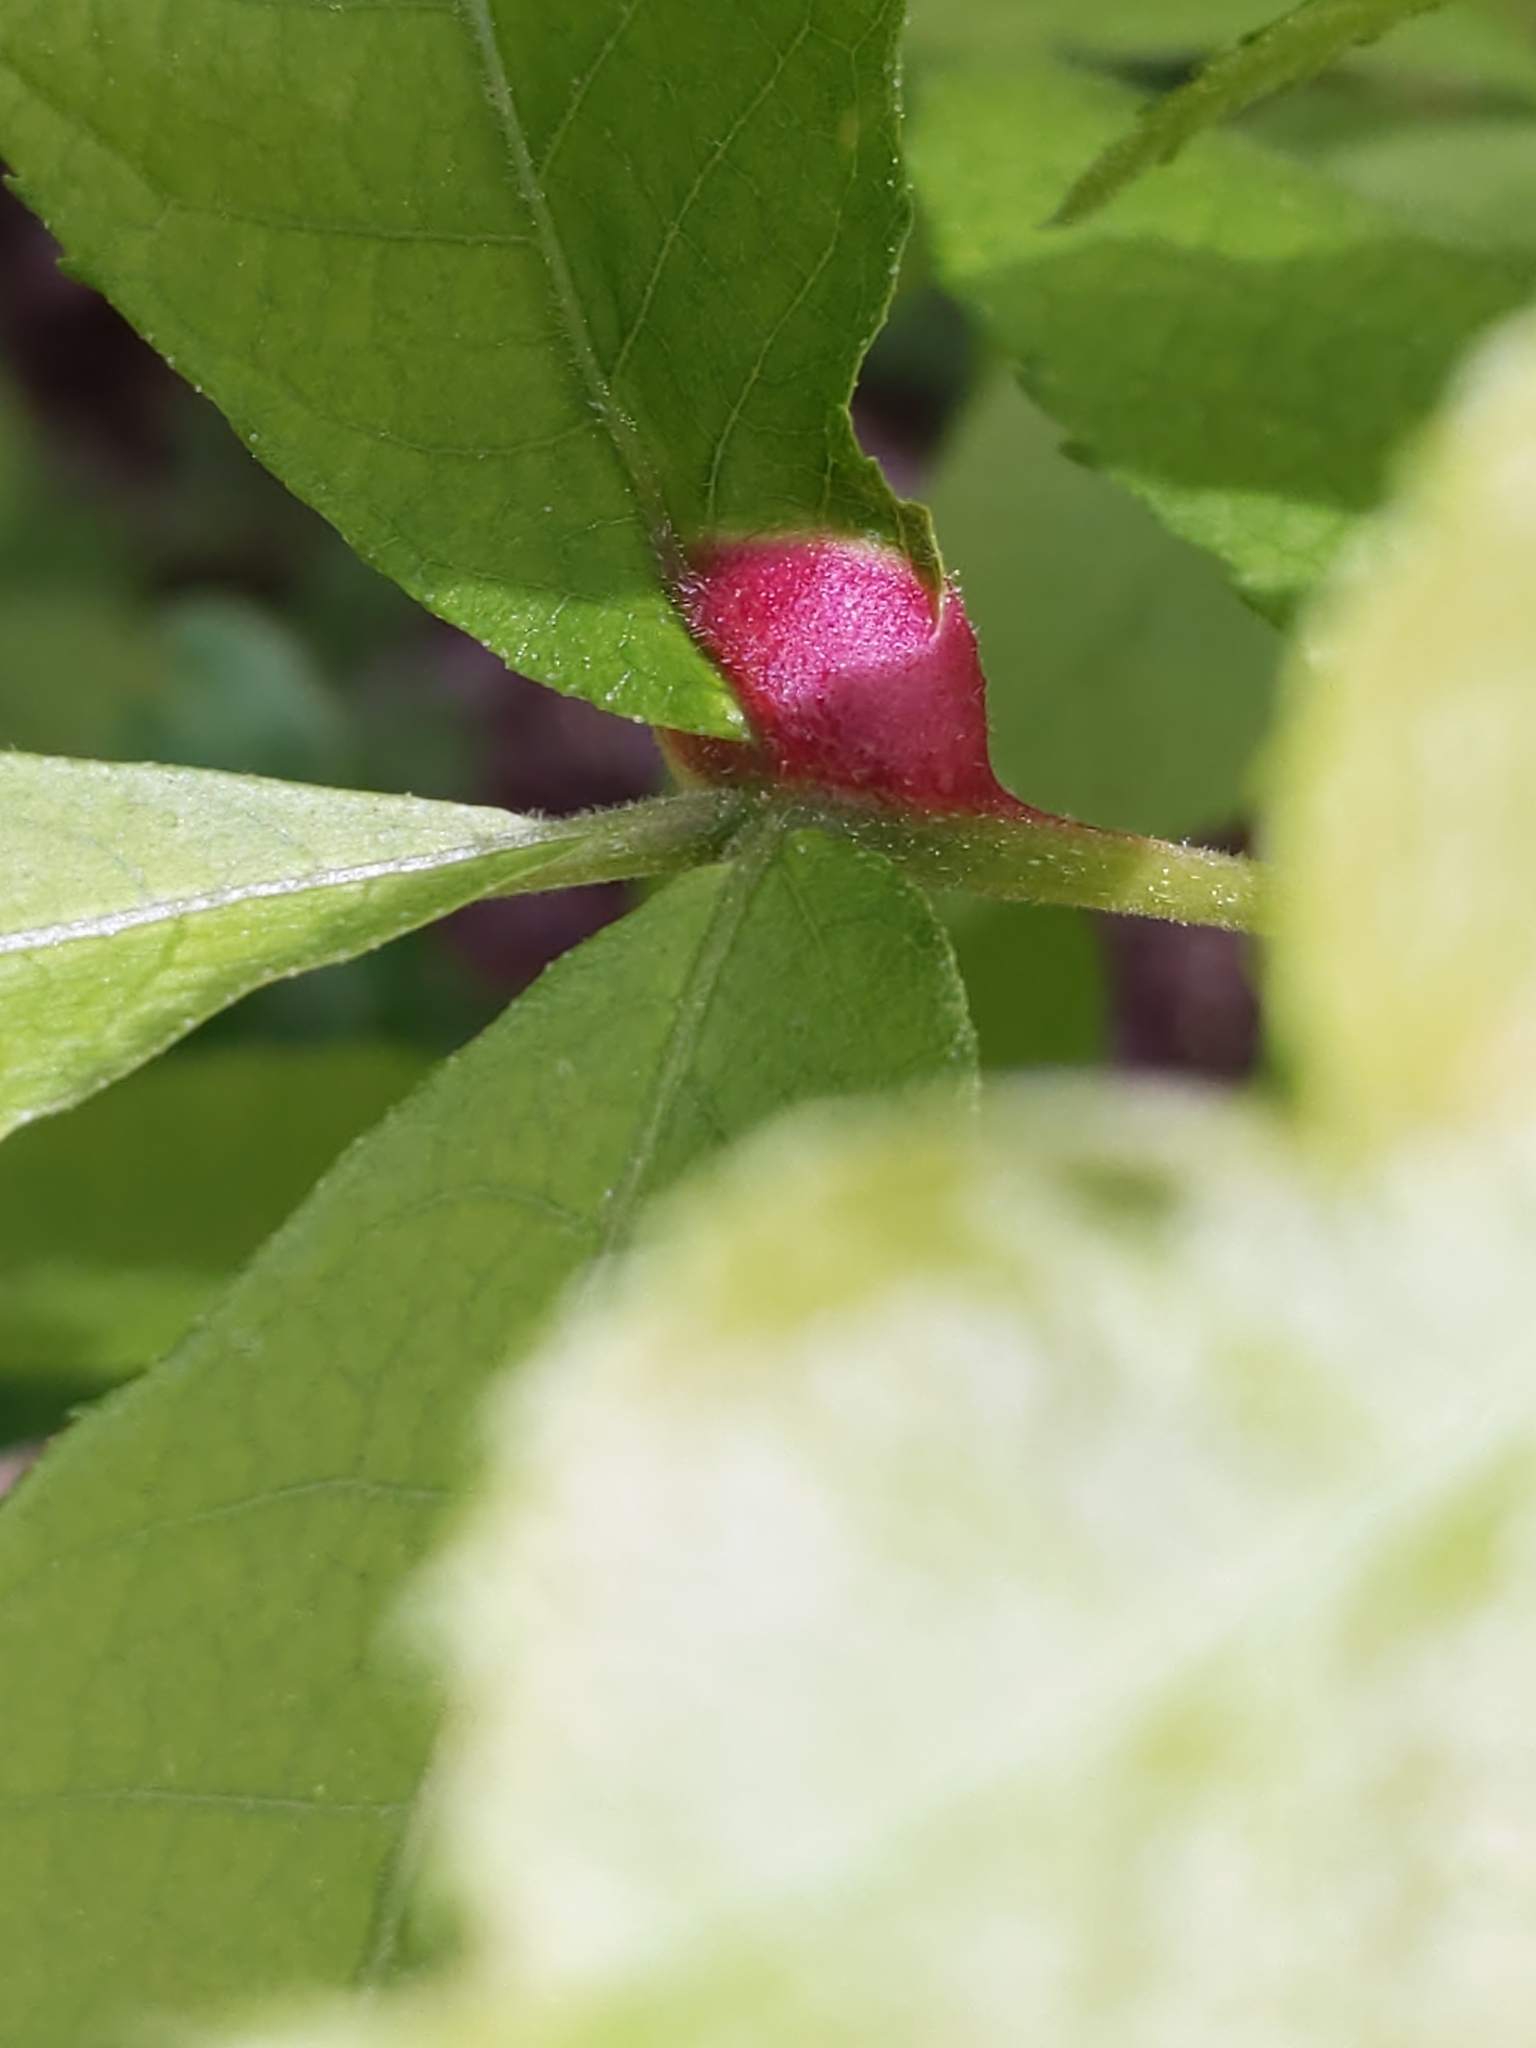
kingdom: Animalia
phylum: Arthropoda
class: Insecta
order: Hemiptera
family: Phylloxeridae
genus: Phylloxera
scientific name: Phylloxera
